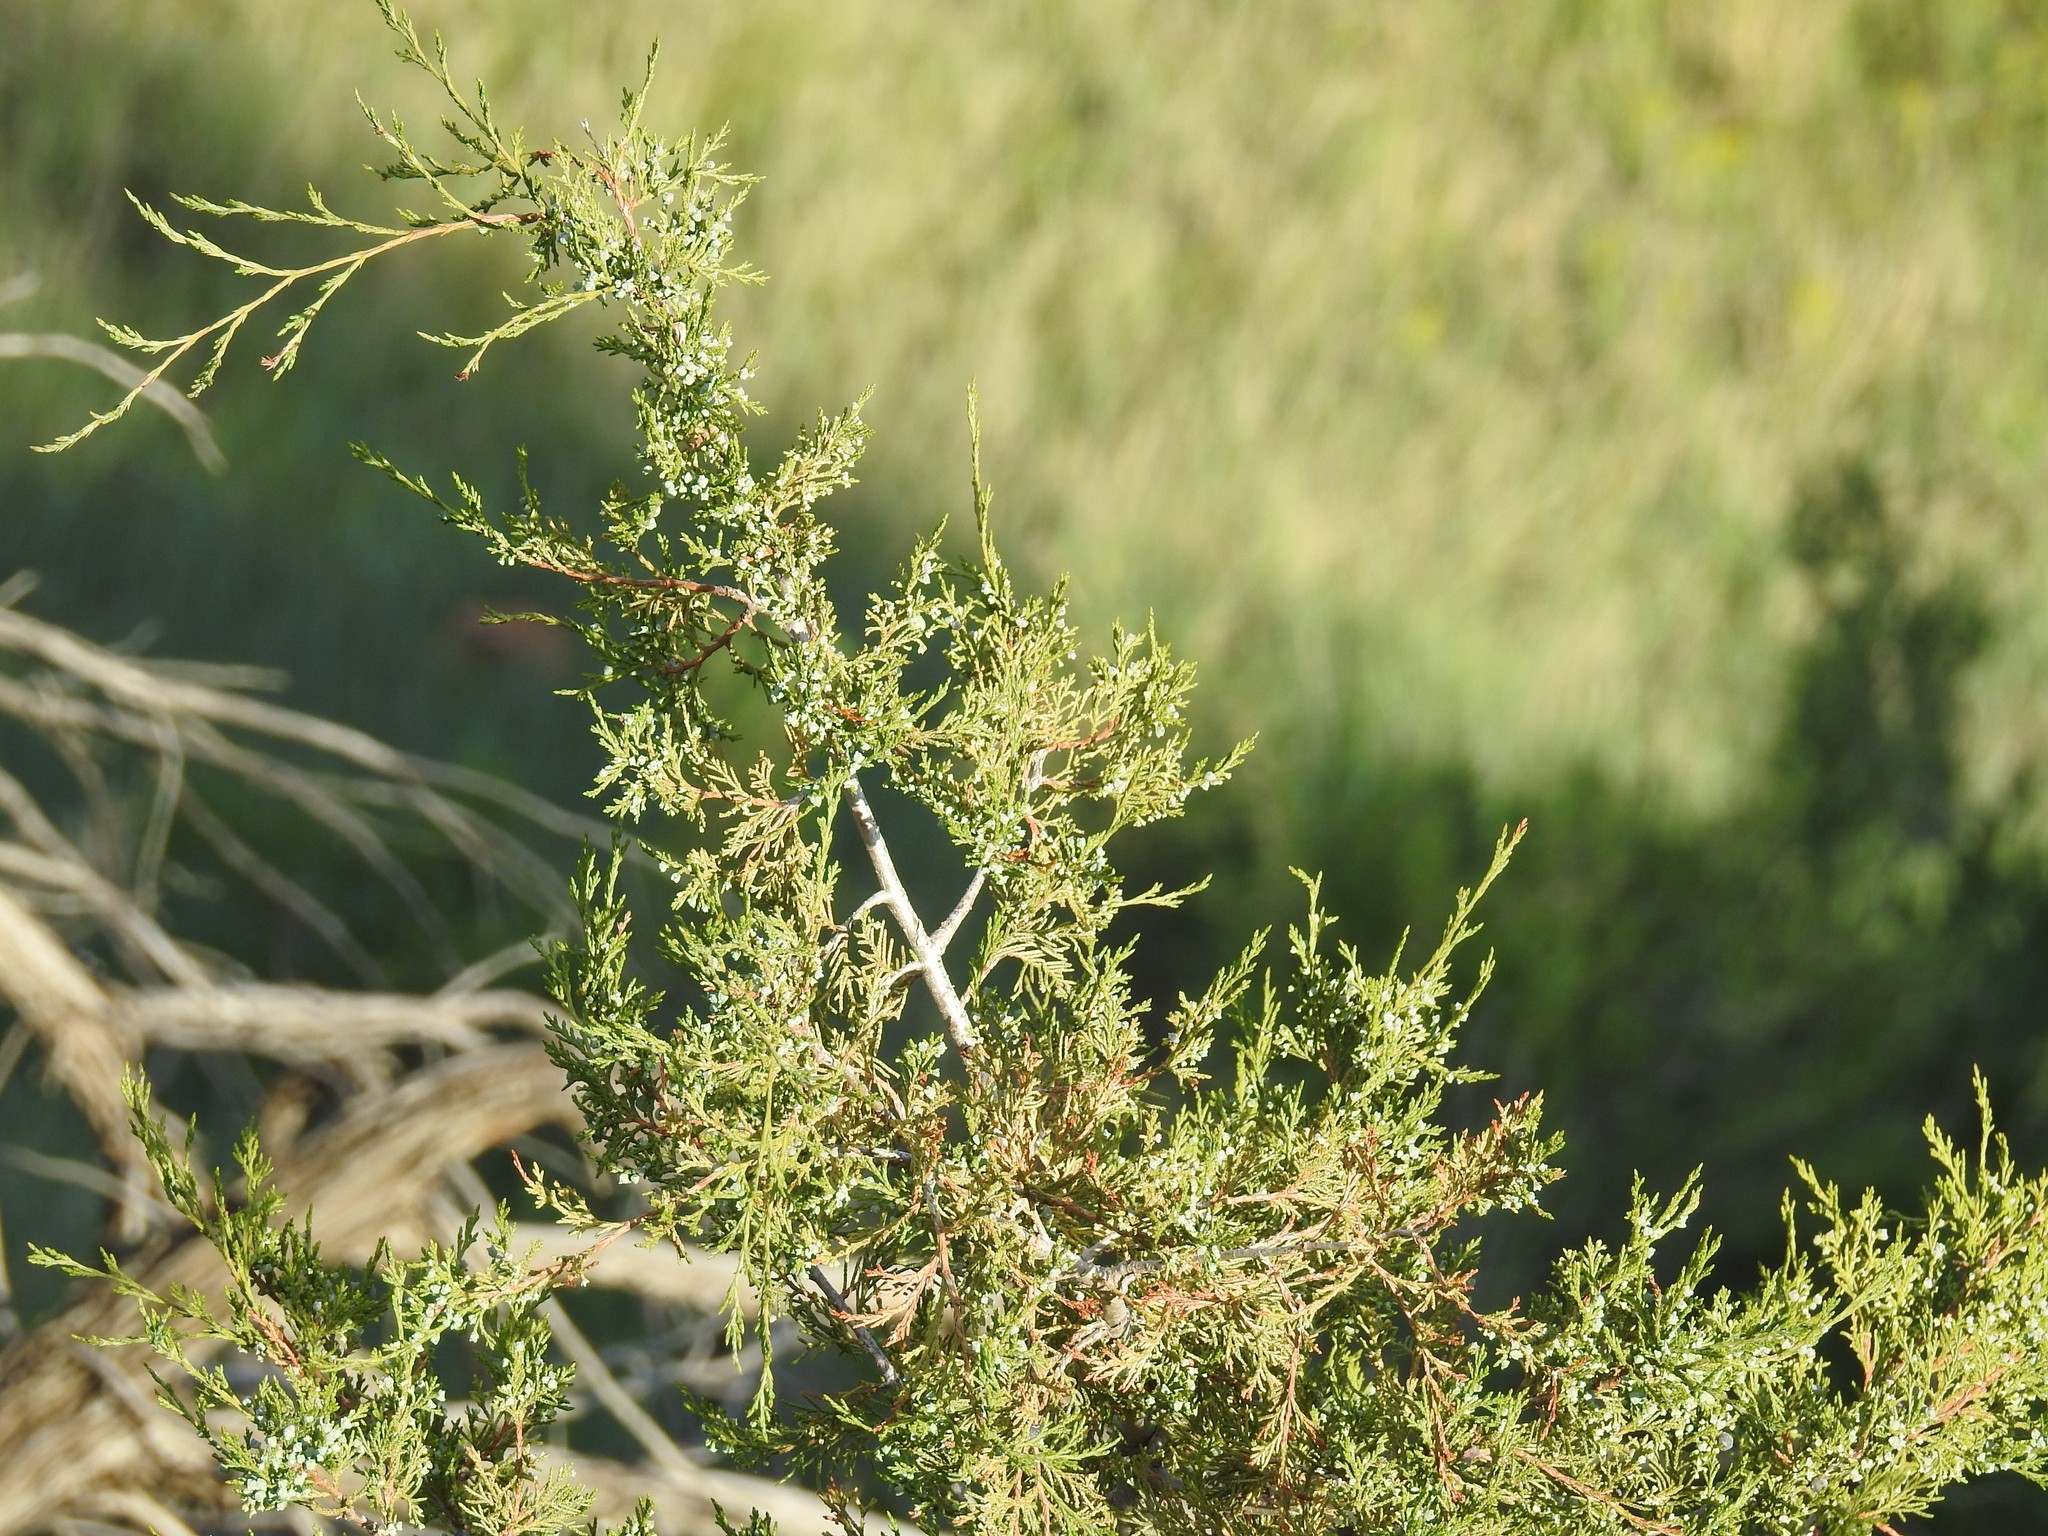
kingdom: Plantae
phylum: Tracheophyta
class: Pinopsida
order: Pinales
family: Cupressaceae
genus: Juniperus
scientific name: Juniperus scopulorum
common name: Rocky mountain juniper
